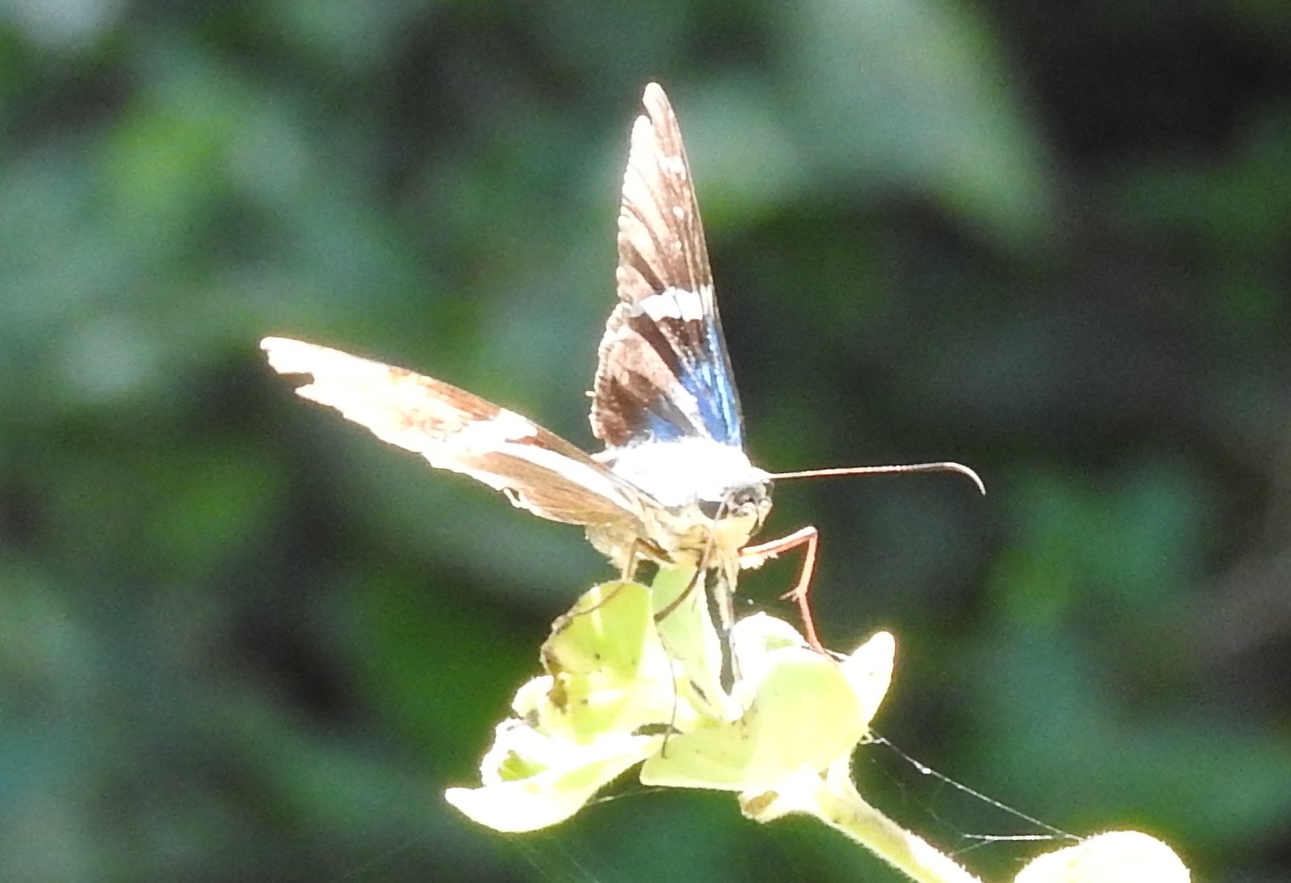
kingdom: Animalia
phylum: Arthropoda
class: Insecta
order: Lepidoptera
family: Hesperiidae
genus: Astraptes
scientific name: Astraptes fulgerator
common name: Two-barred flasher
